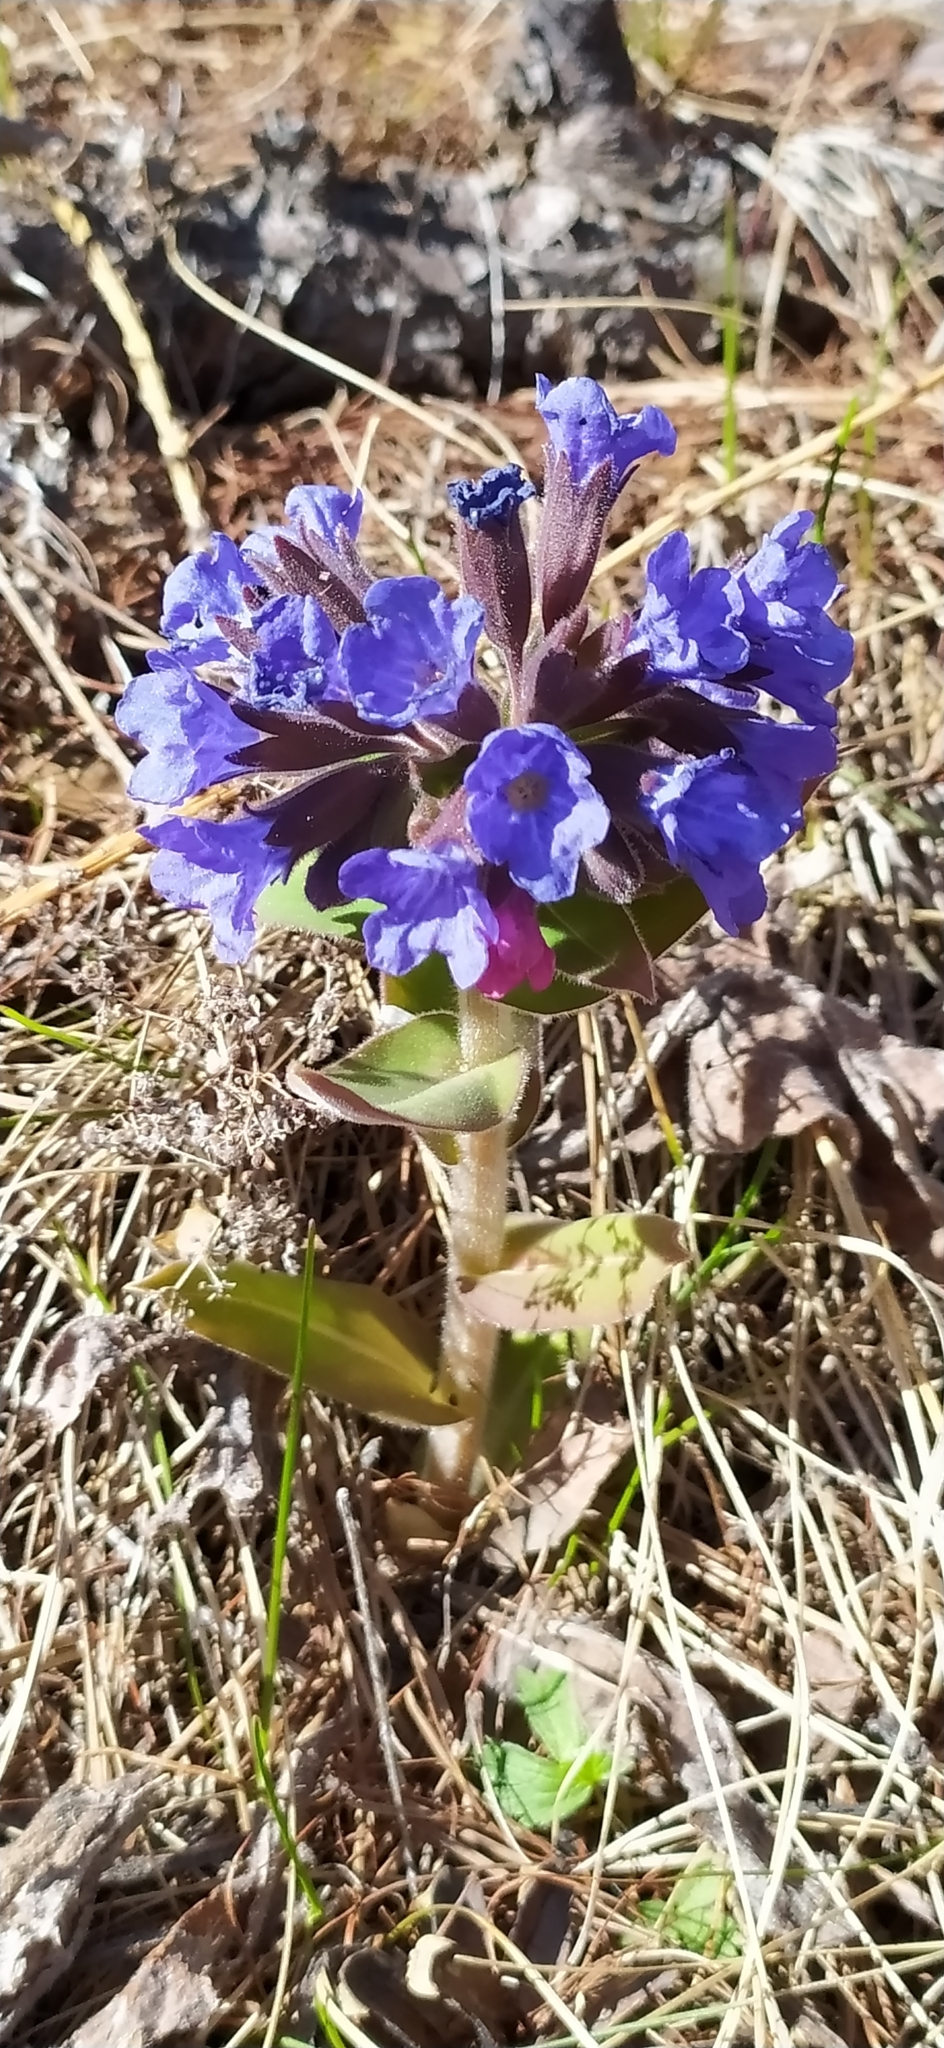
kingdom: Plantae
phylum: Tracheophyta
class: Magnoliopsida
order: Boraginales
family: Boraginaceae
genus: Pulmonaria
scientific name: Pulmonaria mollis
